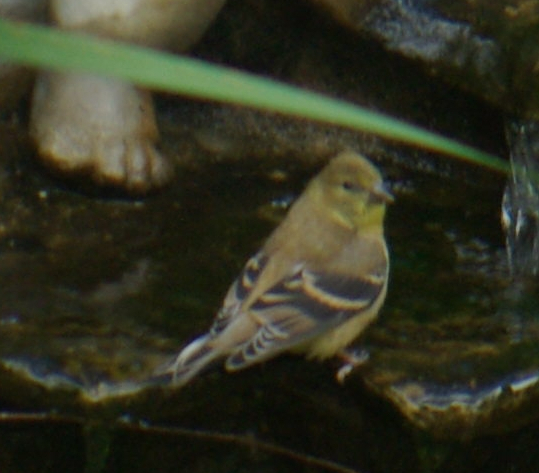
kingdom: Animalia
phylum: Chordata
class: Aves
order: Passeriformes
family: Fringillidae
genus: Spinus
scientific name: Spinus tristis
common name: American goldfinch
